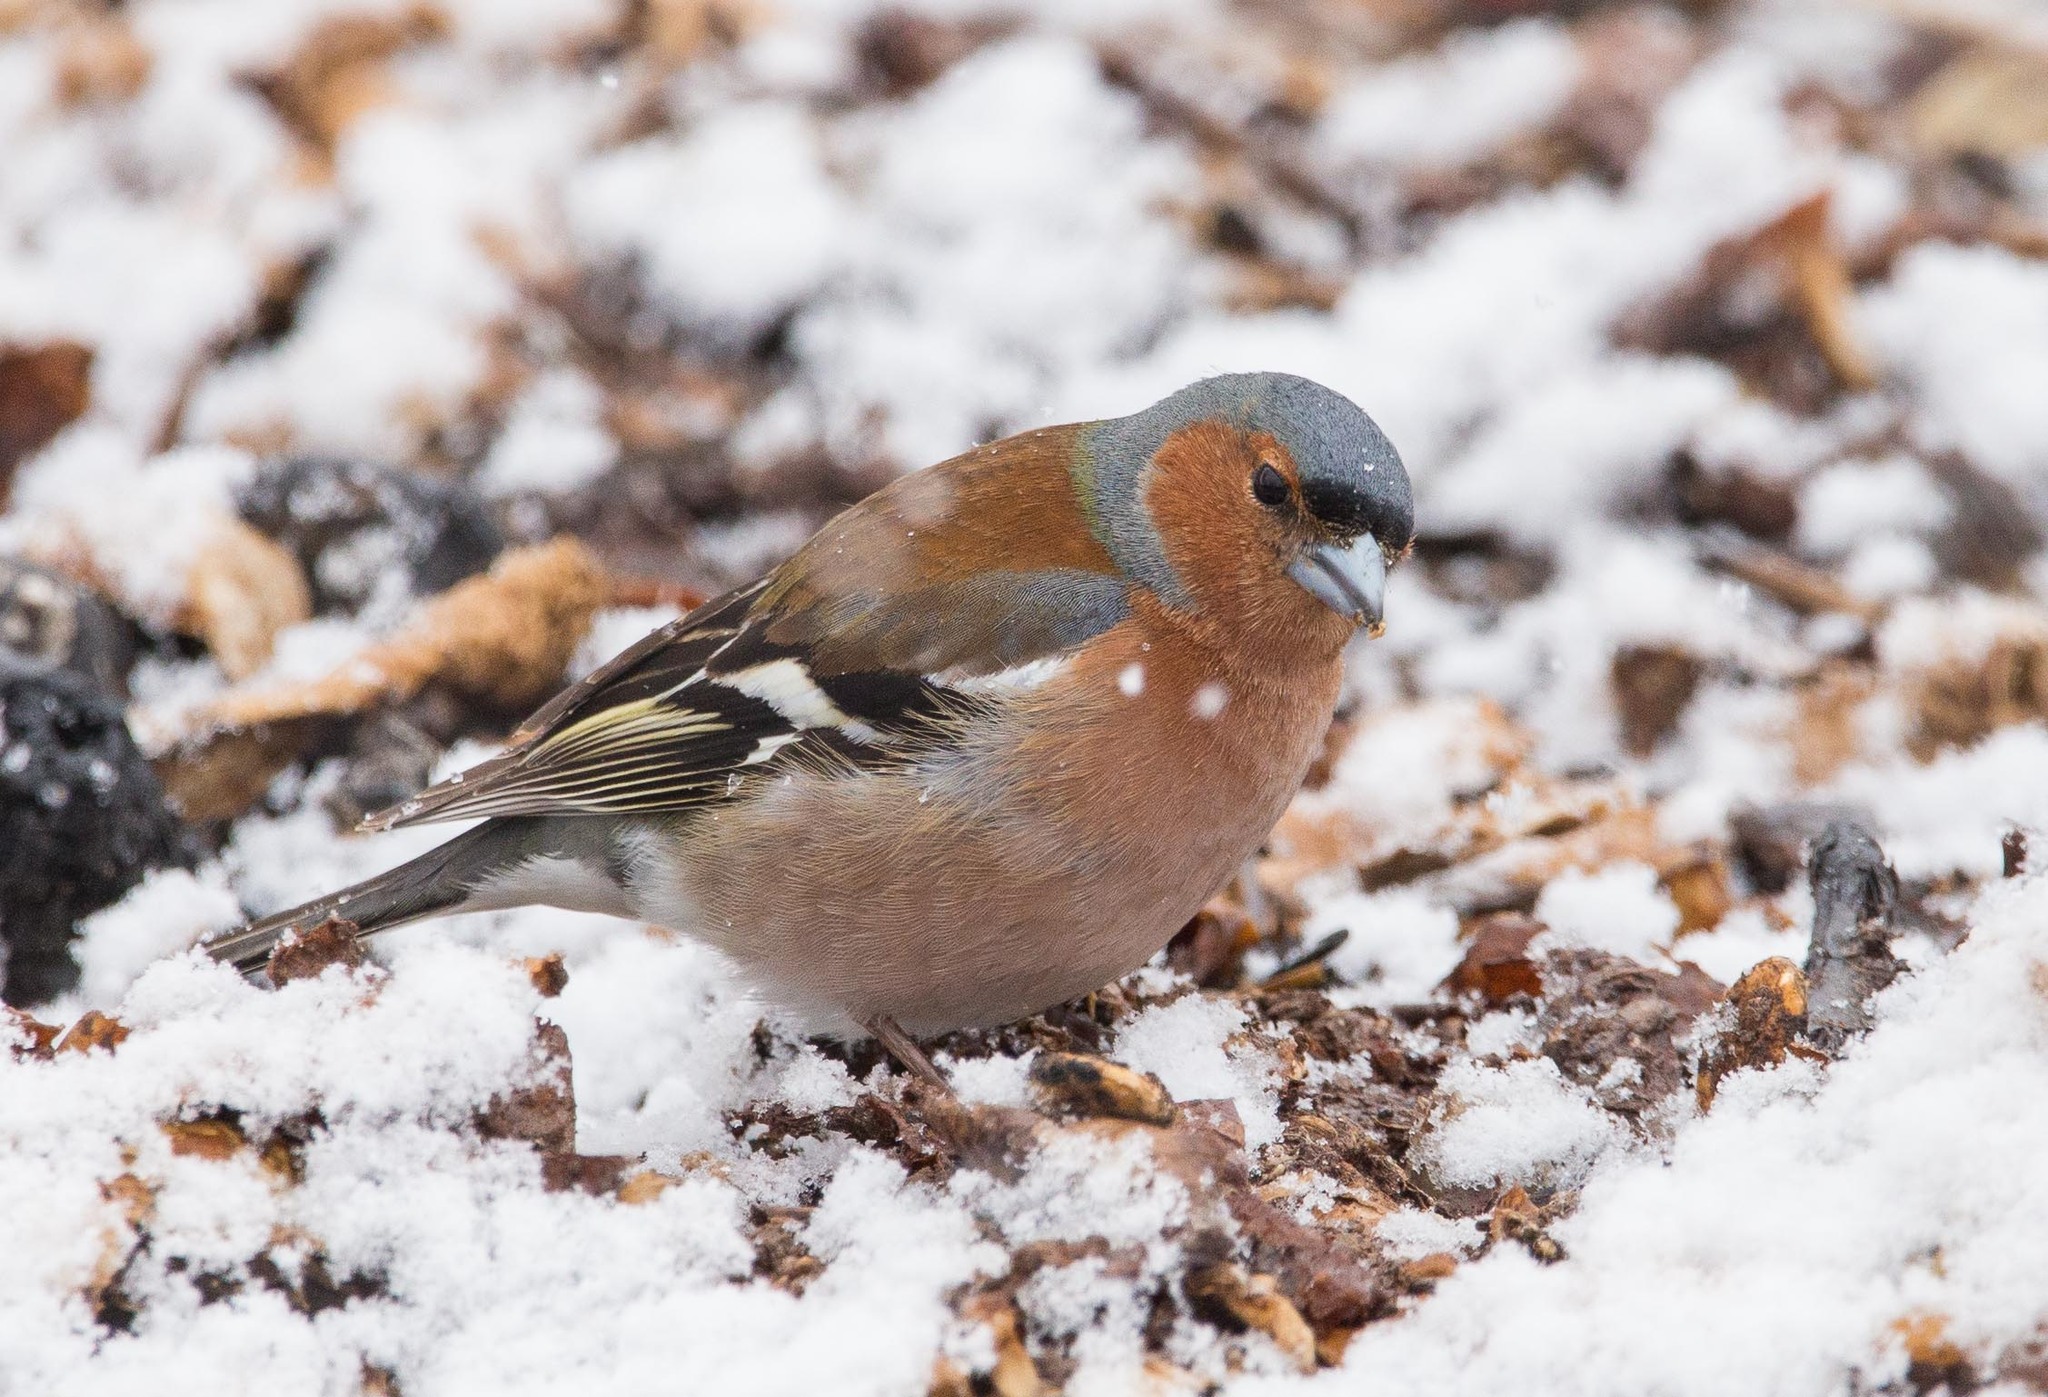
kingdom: Animalia
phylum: Chordata
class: Aves
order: Passeriformes
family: Fringillidae
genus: Fringilla
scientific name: Fringilla coelebs
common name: Common chaffinch
